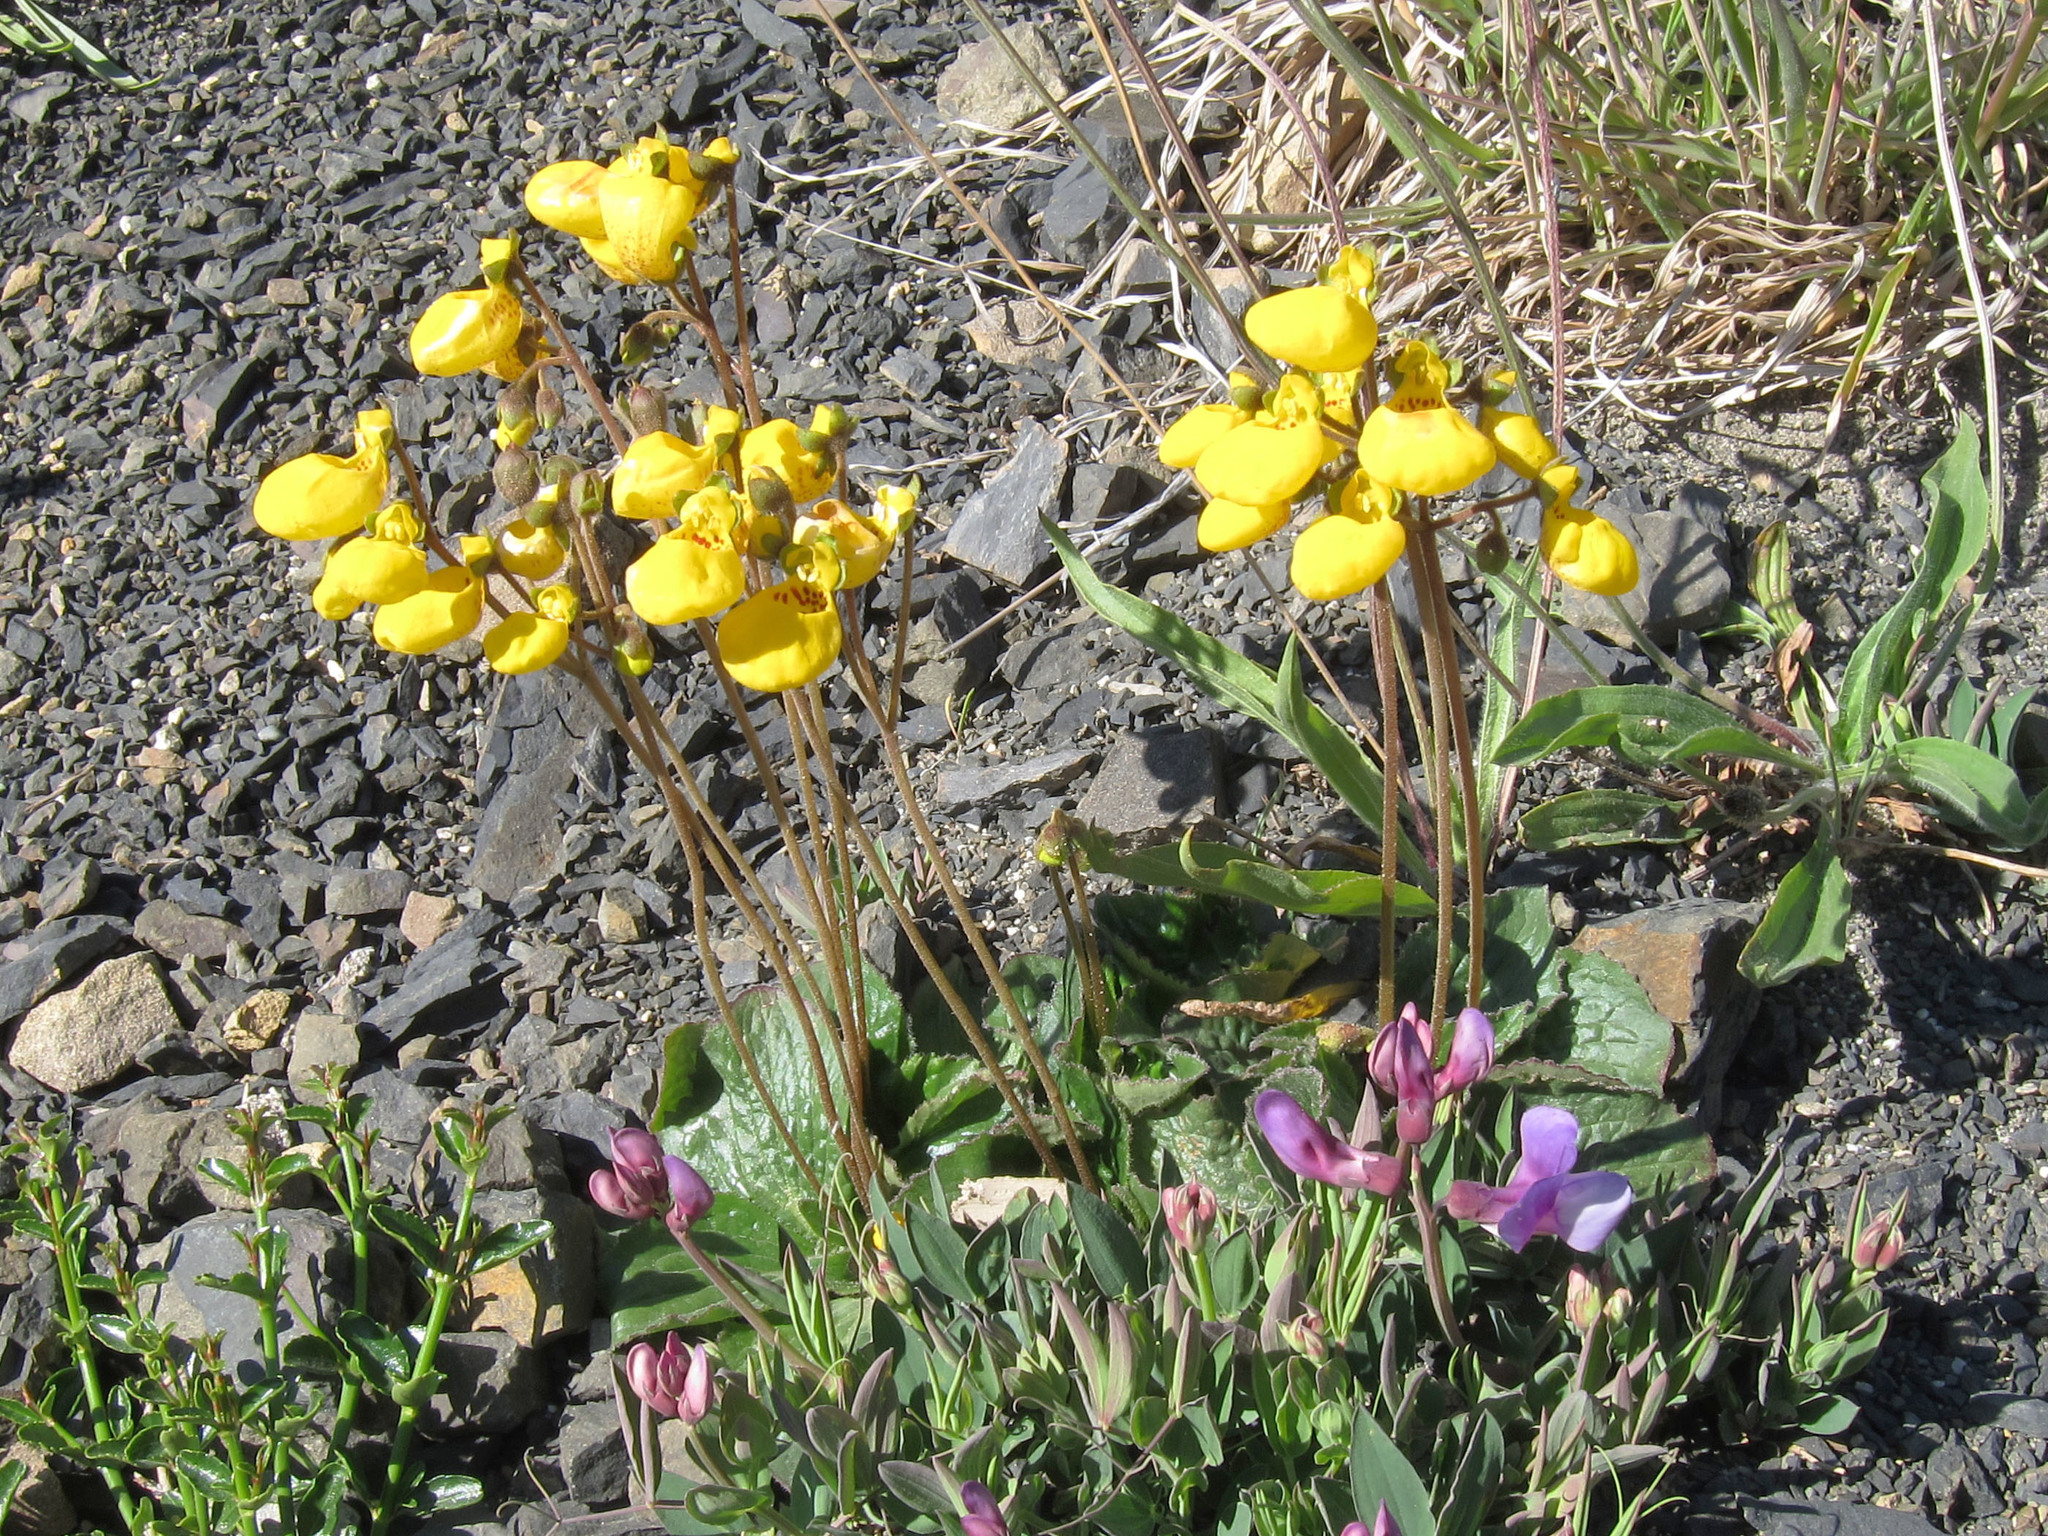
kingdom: Plantae
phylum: Tracheophyta
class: Magnoliopsida
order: Lamiales
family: Calceolariaceae
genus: Calceolaria
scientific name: Calceolaria biflora
